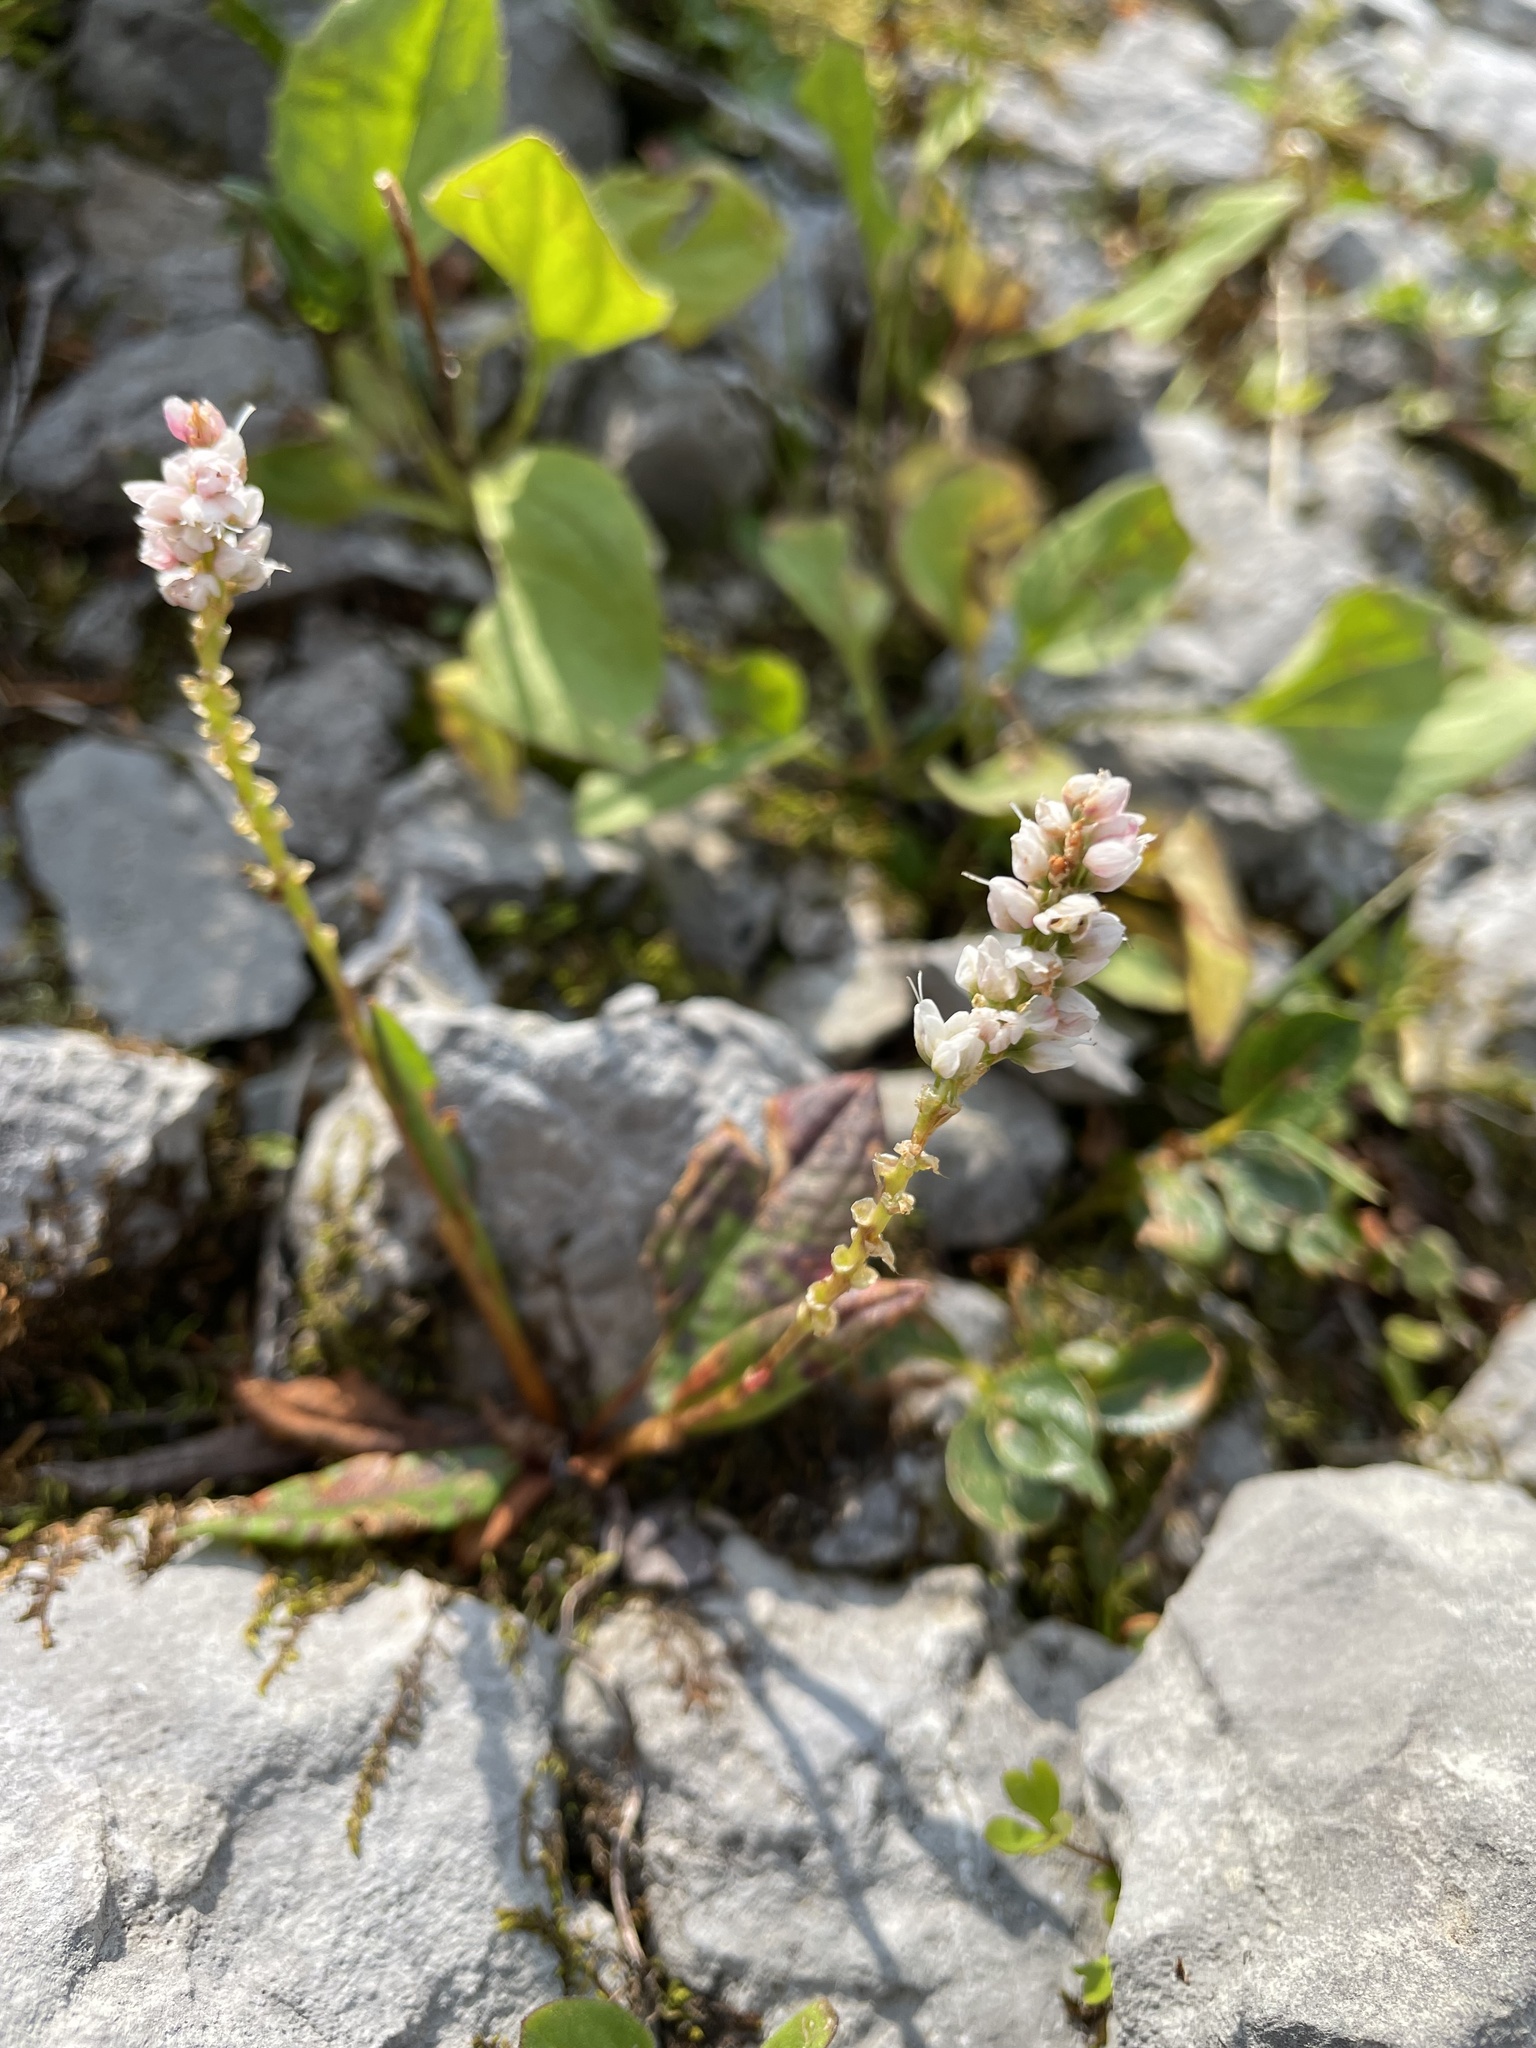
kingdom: Plantae
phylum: Tracheophyta
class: Magnoliopsida
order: Caryophyllales
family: Polygonaceae
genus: Bistorta
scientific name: Bistorta vivipara
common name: Alpine bistort
